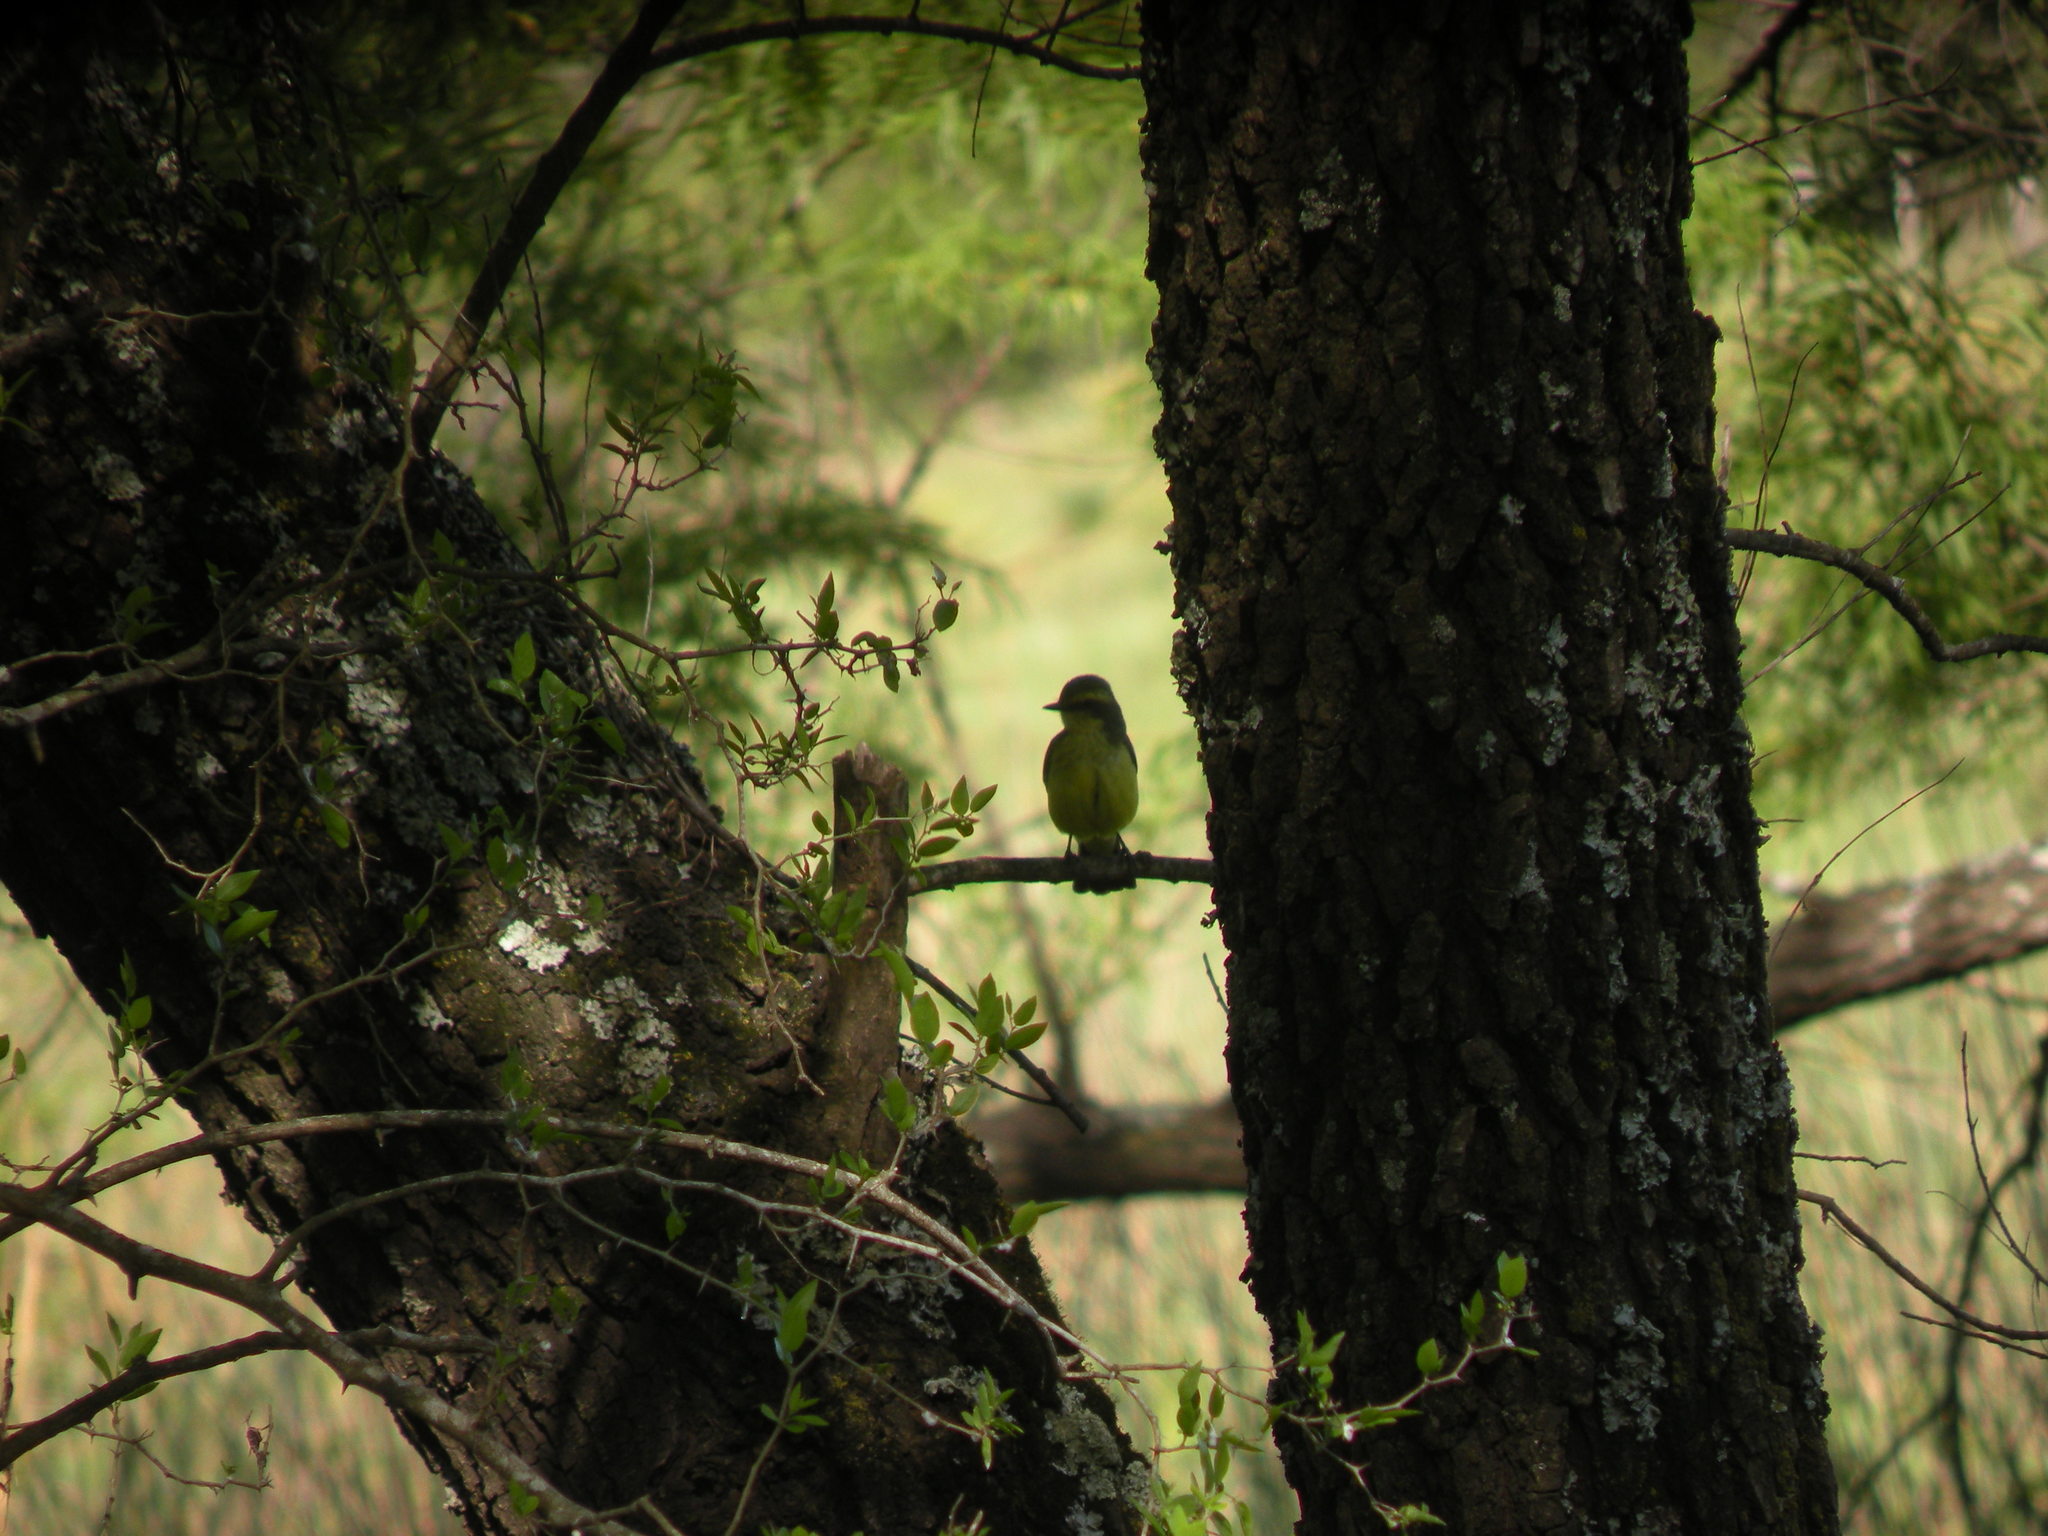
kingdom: Animalia
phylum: Chordata
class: Aves
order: Passeriformes
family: Tyrannidae
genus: Satrapa
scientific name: Satrapa icterophrys
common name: Yellow-browed tyrant
